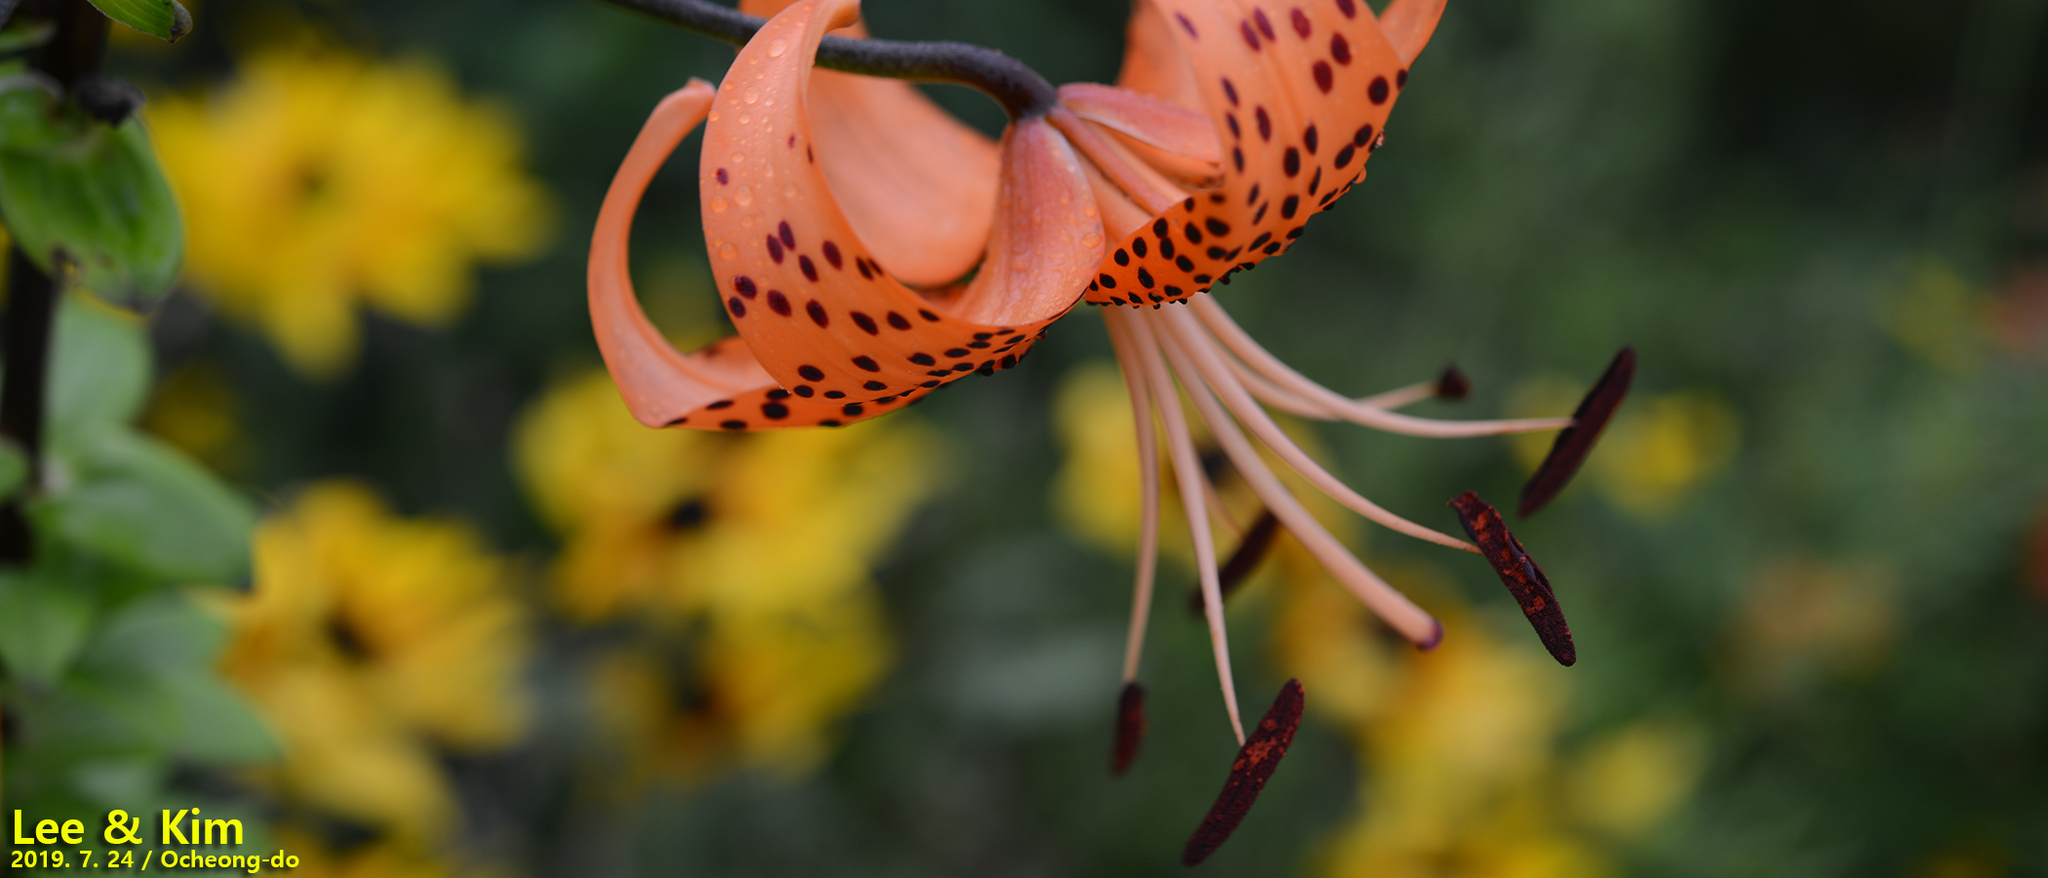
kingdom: Plantae
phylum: Tracheophyta
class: Liliopsida
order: Liliales
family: Liliaceae
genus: Lilium
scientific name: Lilium lancifolium
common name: Tiger lily
